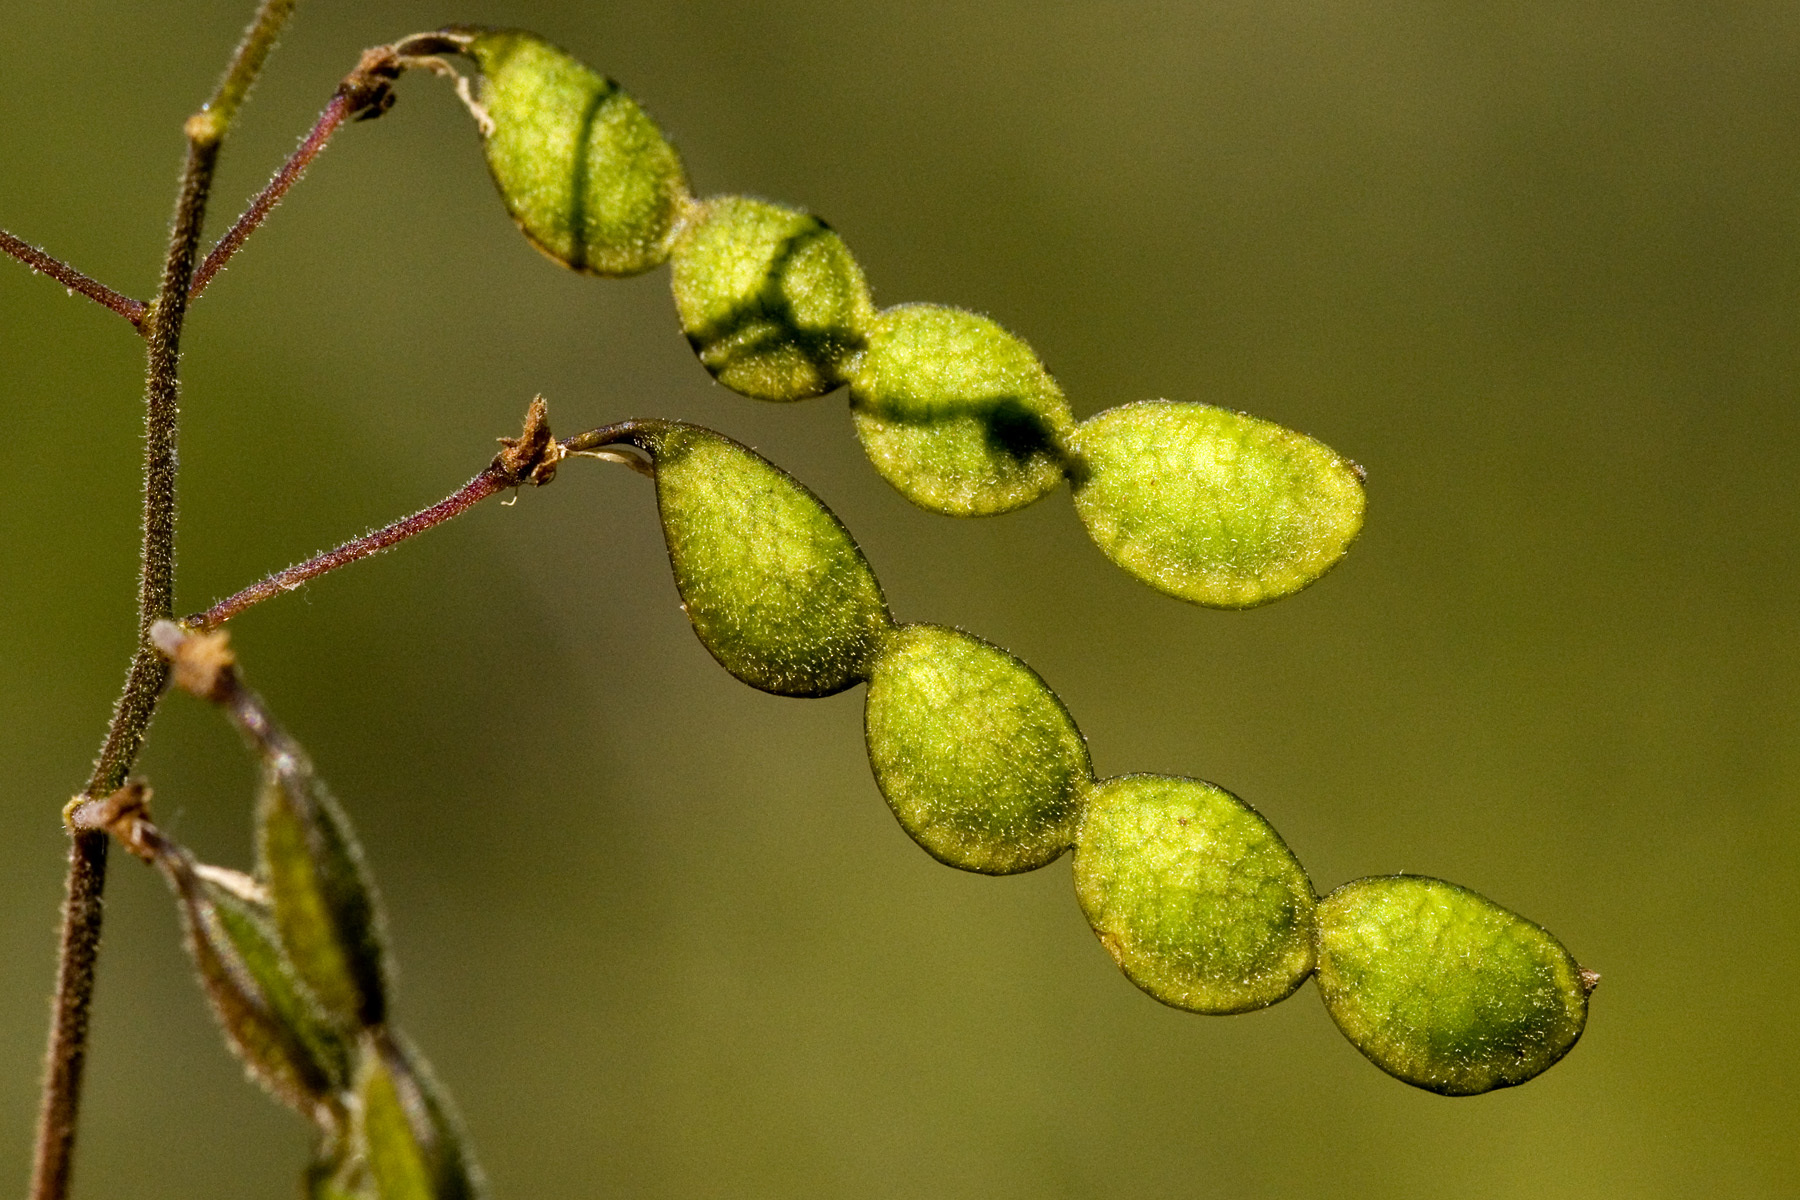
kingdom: Plantae
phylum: Tracheophyta
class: Magnoliopsida
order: Fabales
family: Fabaceae
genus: Desmodium
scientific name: Desmodium psilophyllum
